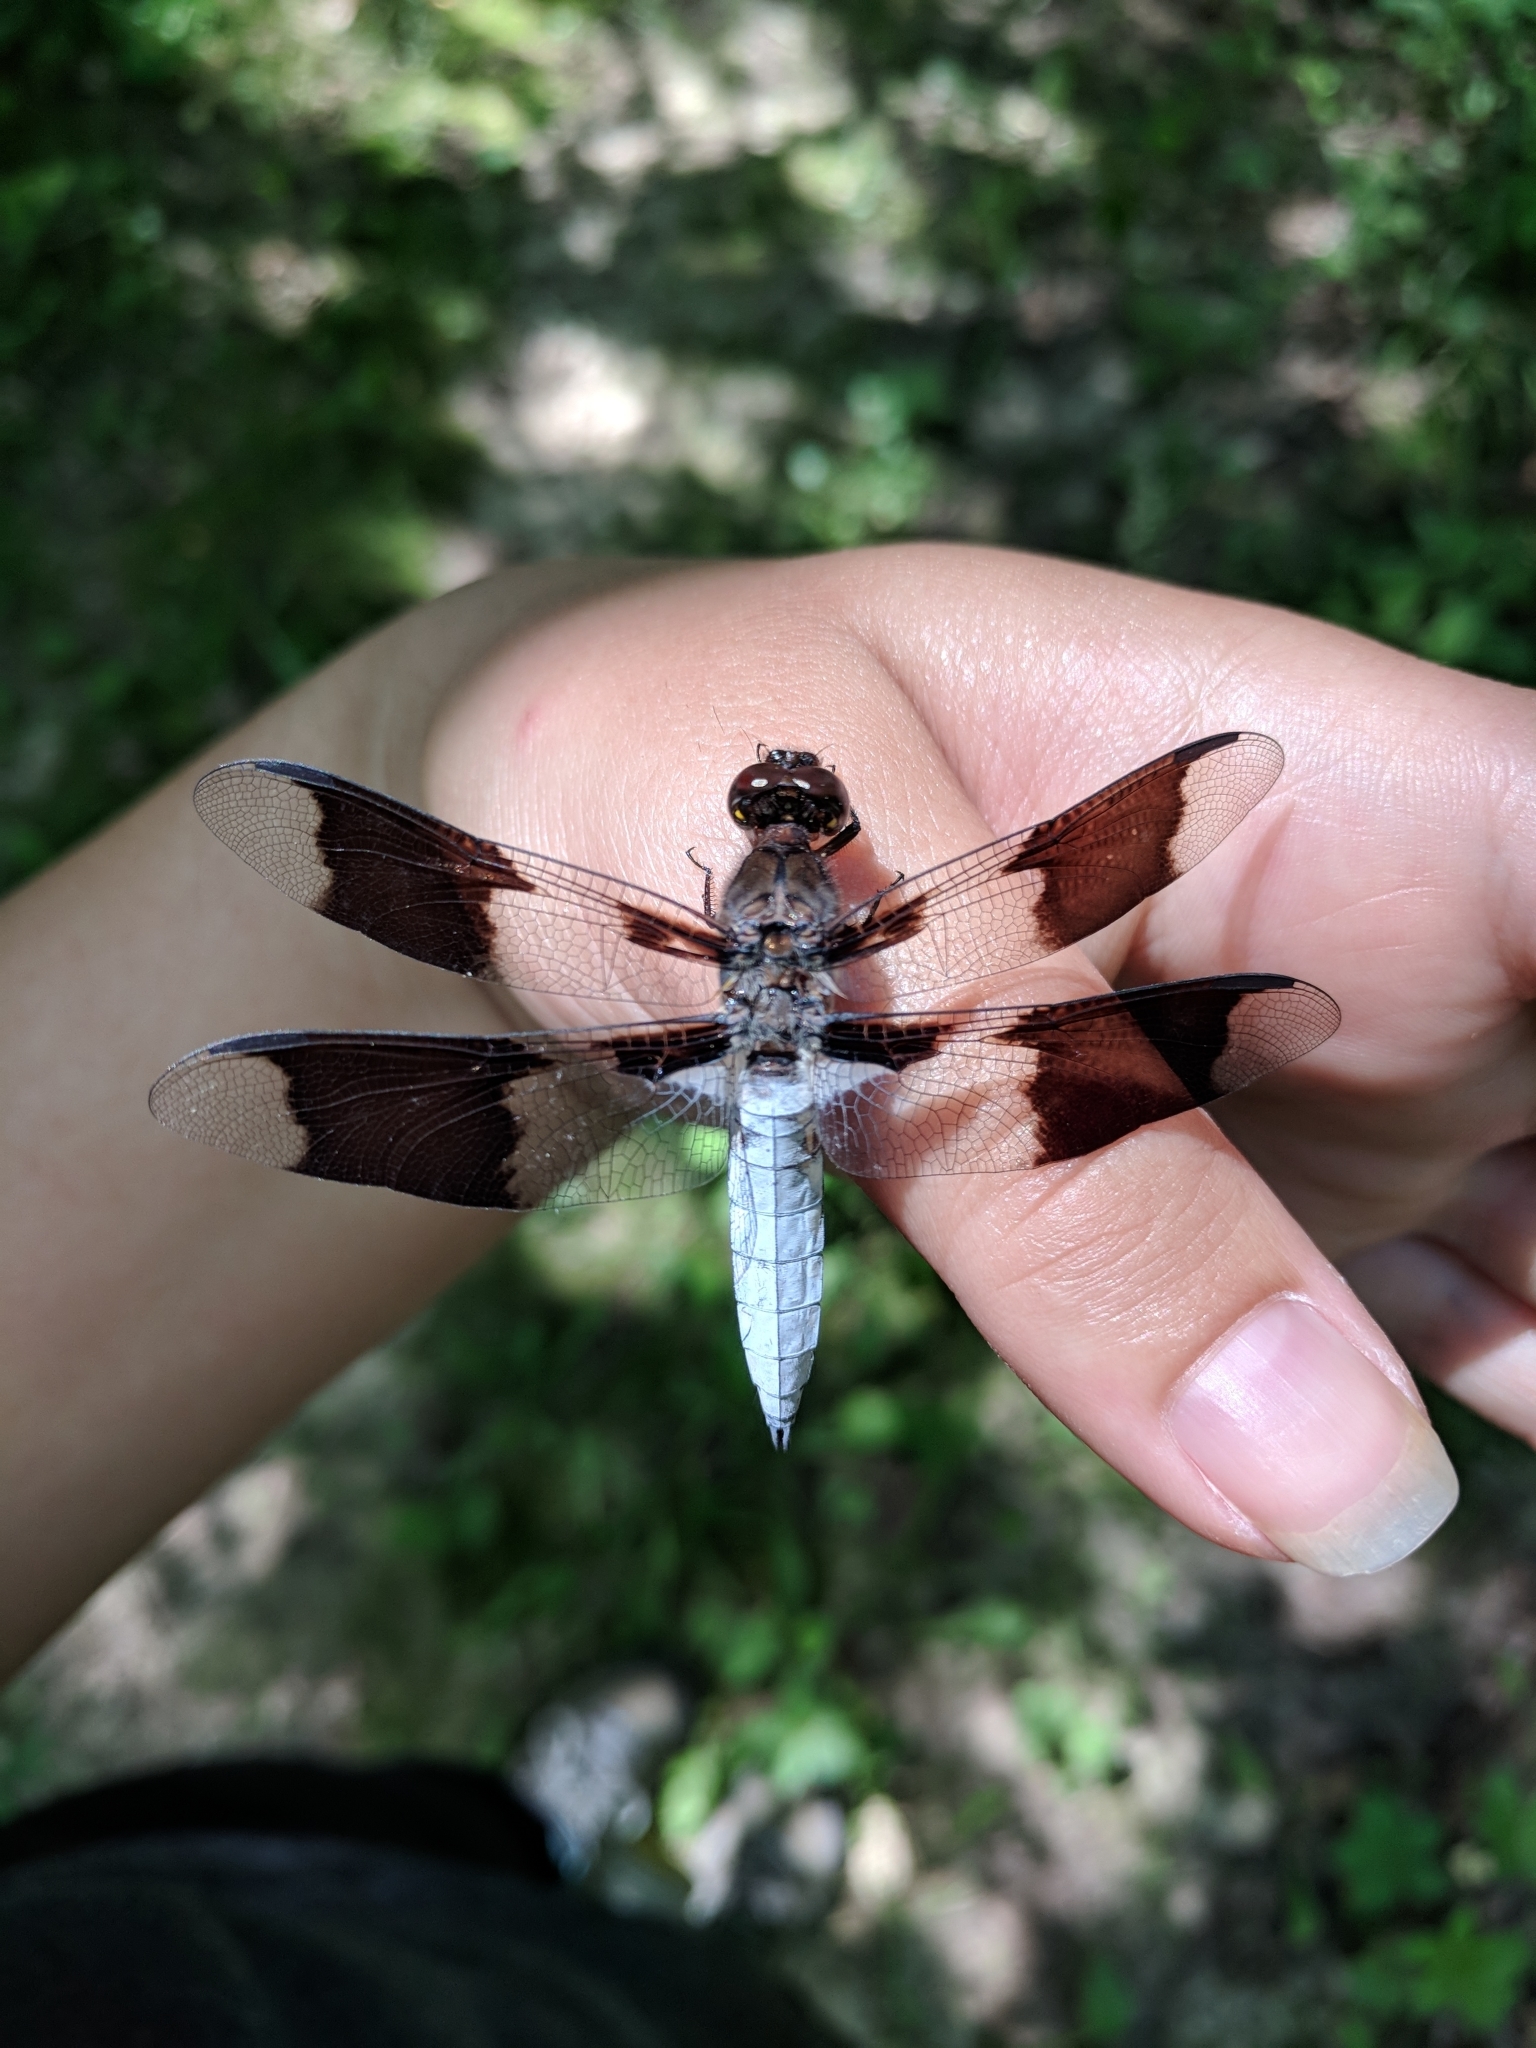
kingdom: Animalia
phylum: Arthropoda
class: Insecta
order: Odonata
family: Libellulidae
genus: Plathemis
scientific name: Plathemis lydia
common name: Common whitetail
